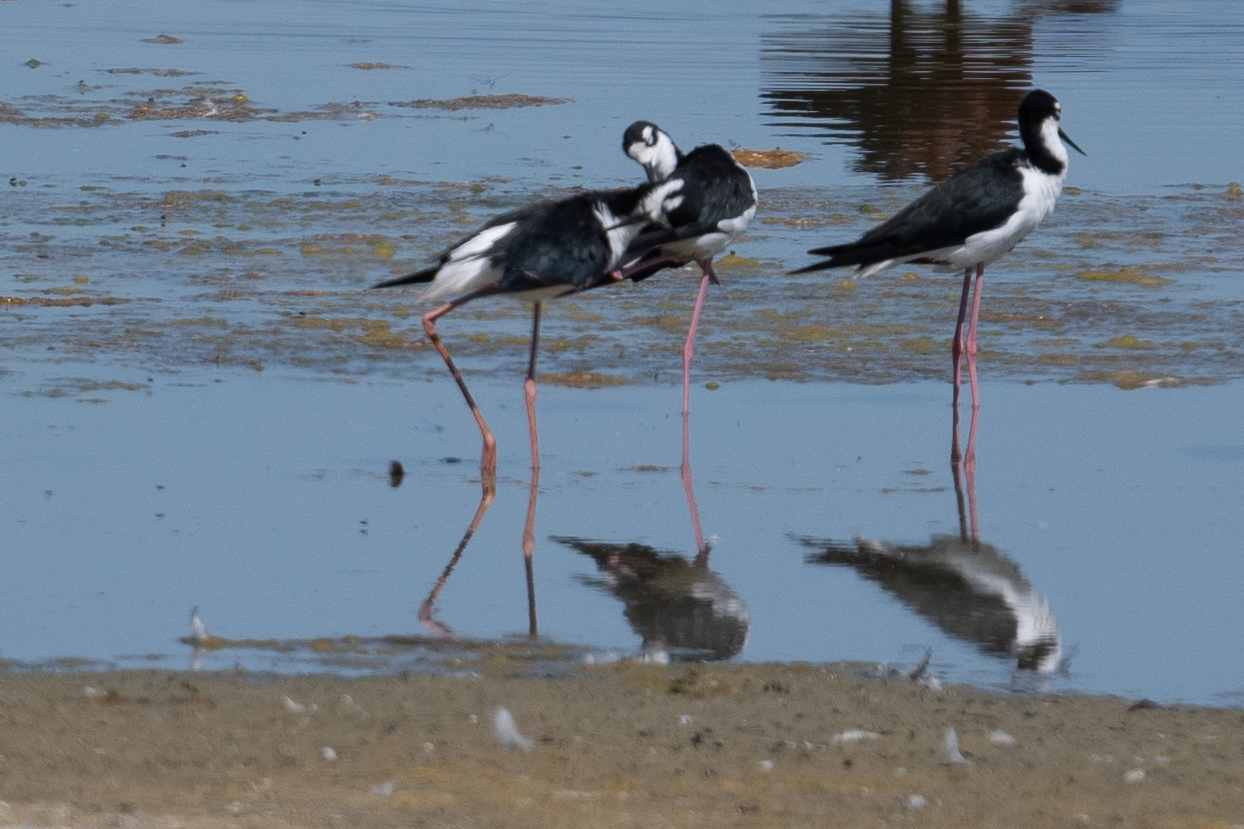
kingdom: Animalia
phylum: Chordata
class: Aves
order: Charadriiformes
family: Recurvirostridae
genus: Himantopus
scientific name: Himantopus mexicanus
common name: Black-necked stilt
